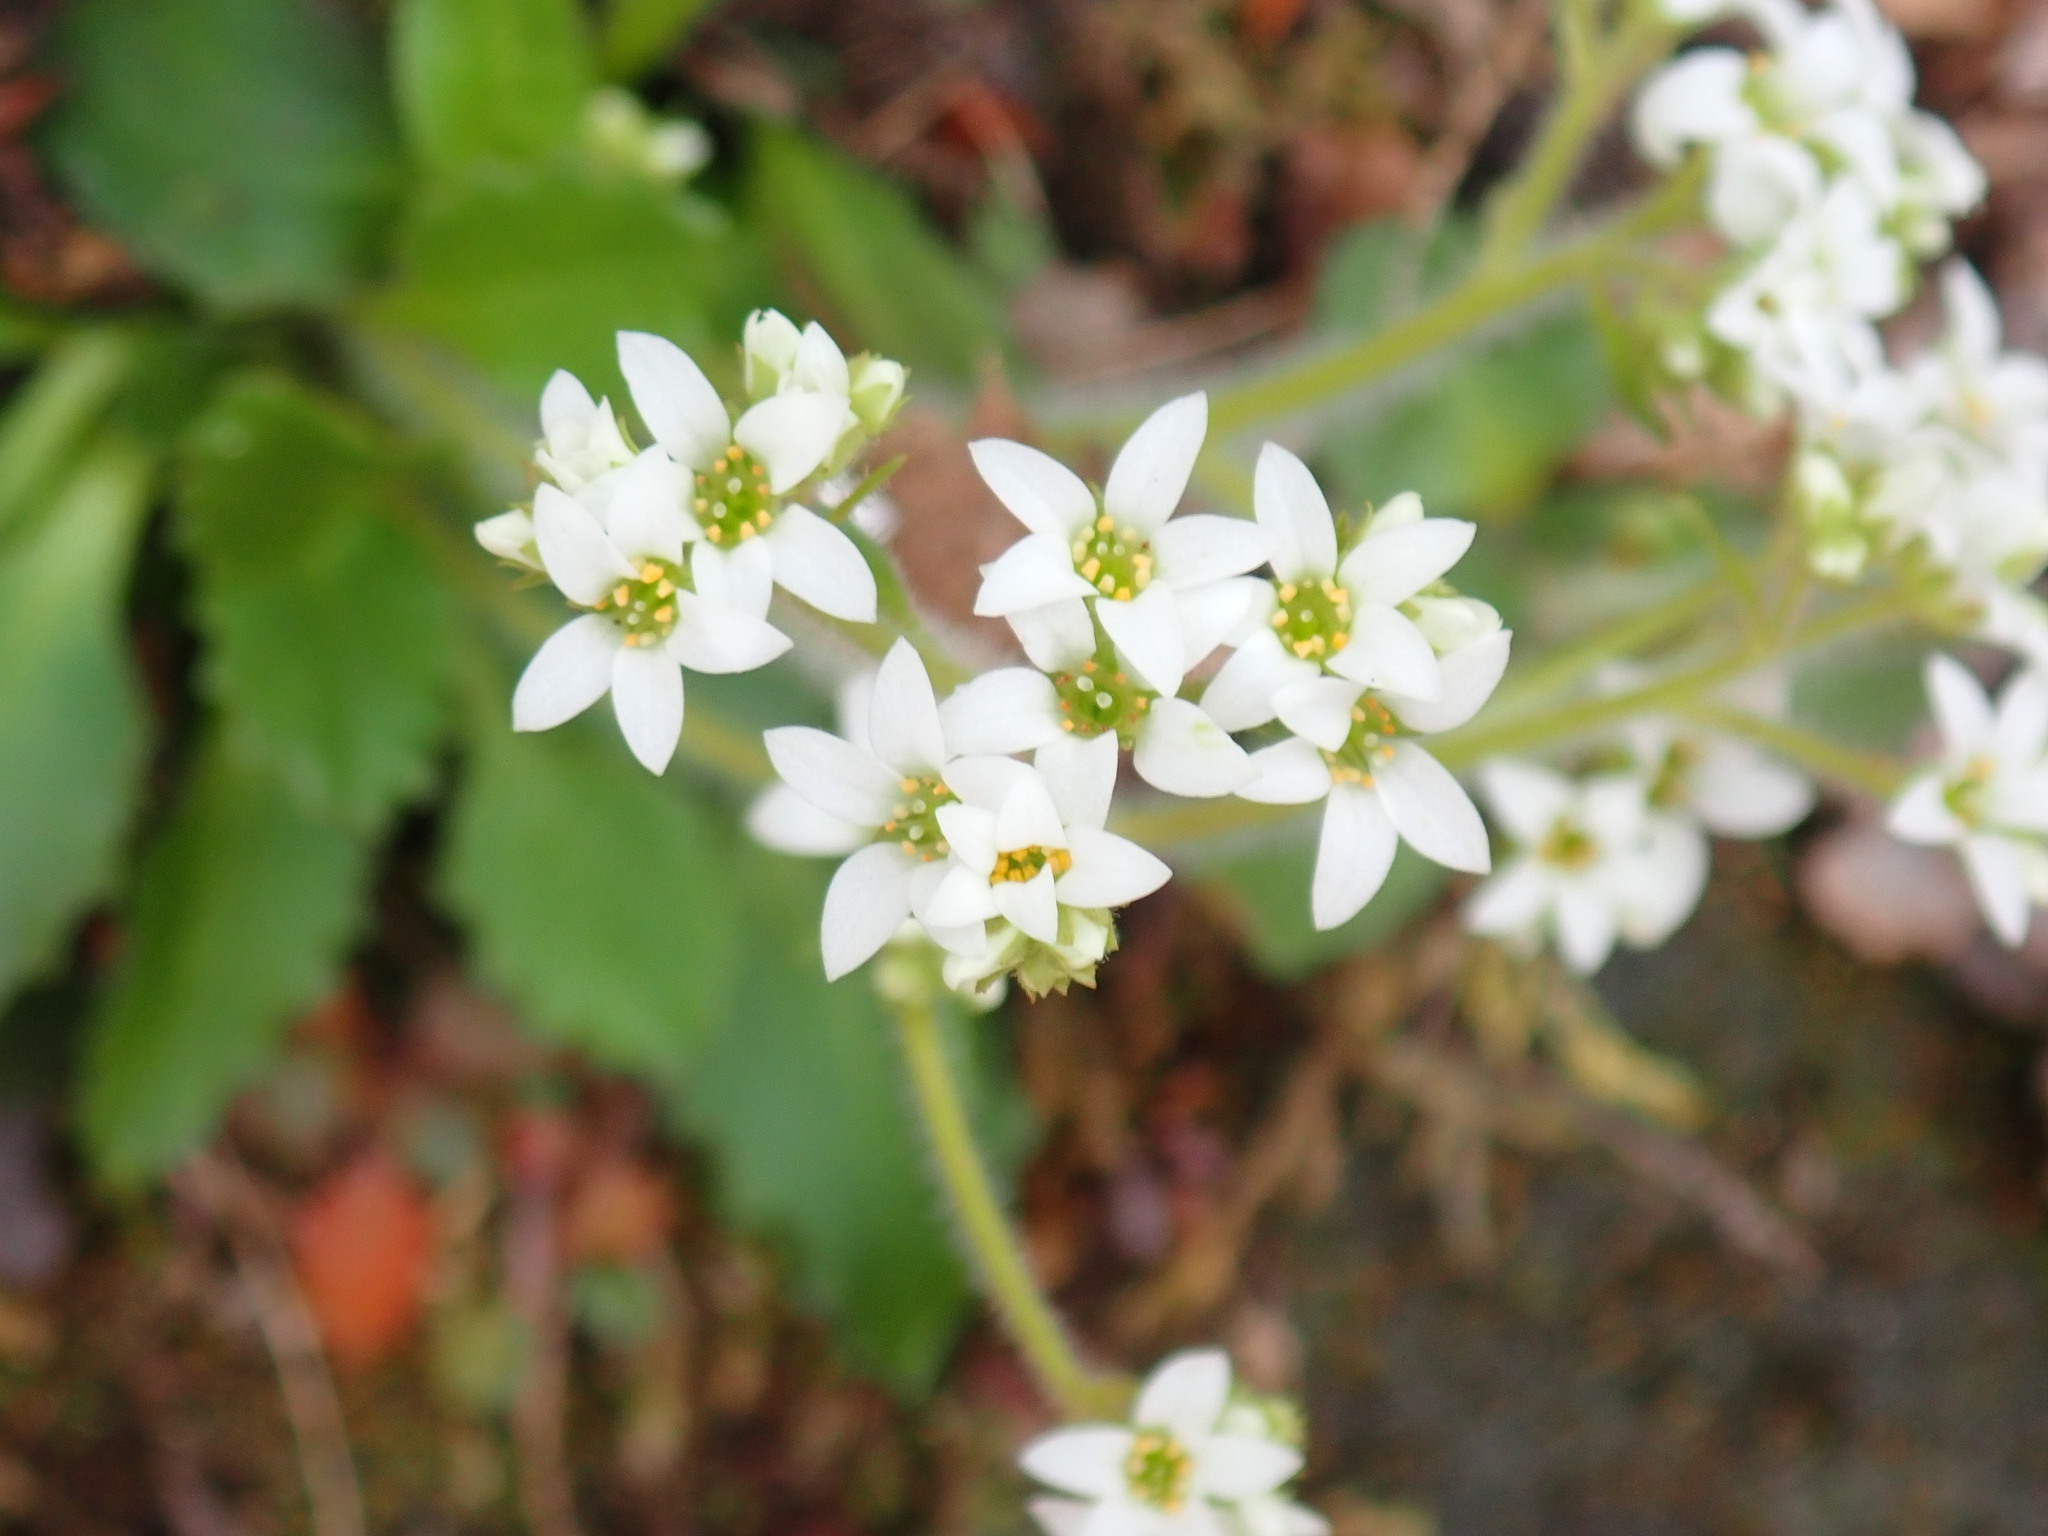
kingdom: Plantae
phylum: Tracheophyta
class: Magnoliopsida
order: Saxifragales
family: Saxifragaceae
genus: Micranthes
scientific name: Micranthes virginiensis
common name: Early saxifrage
